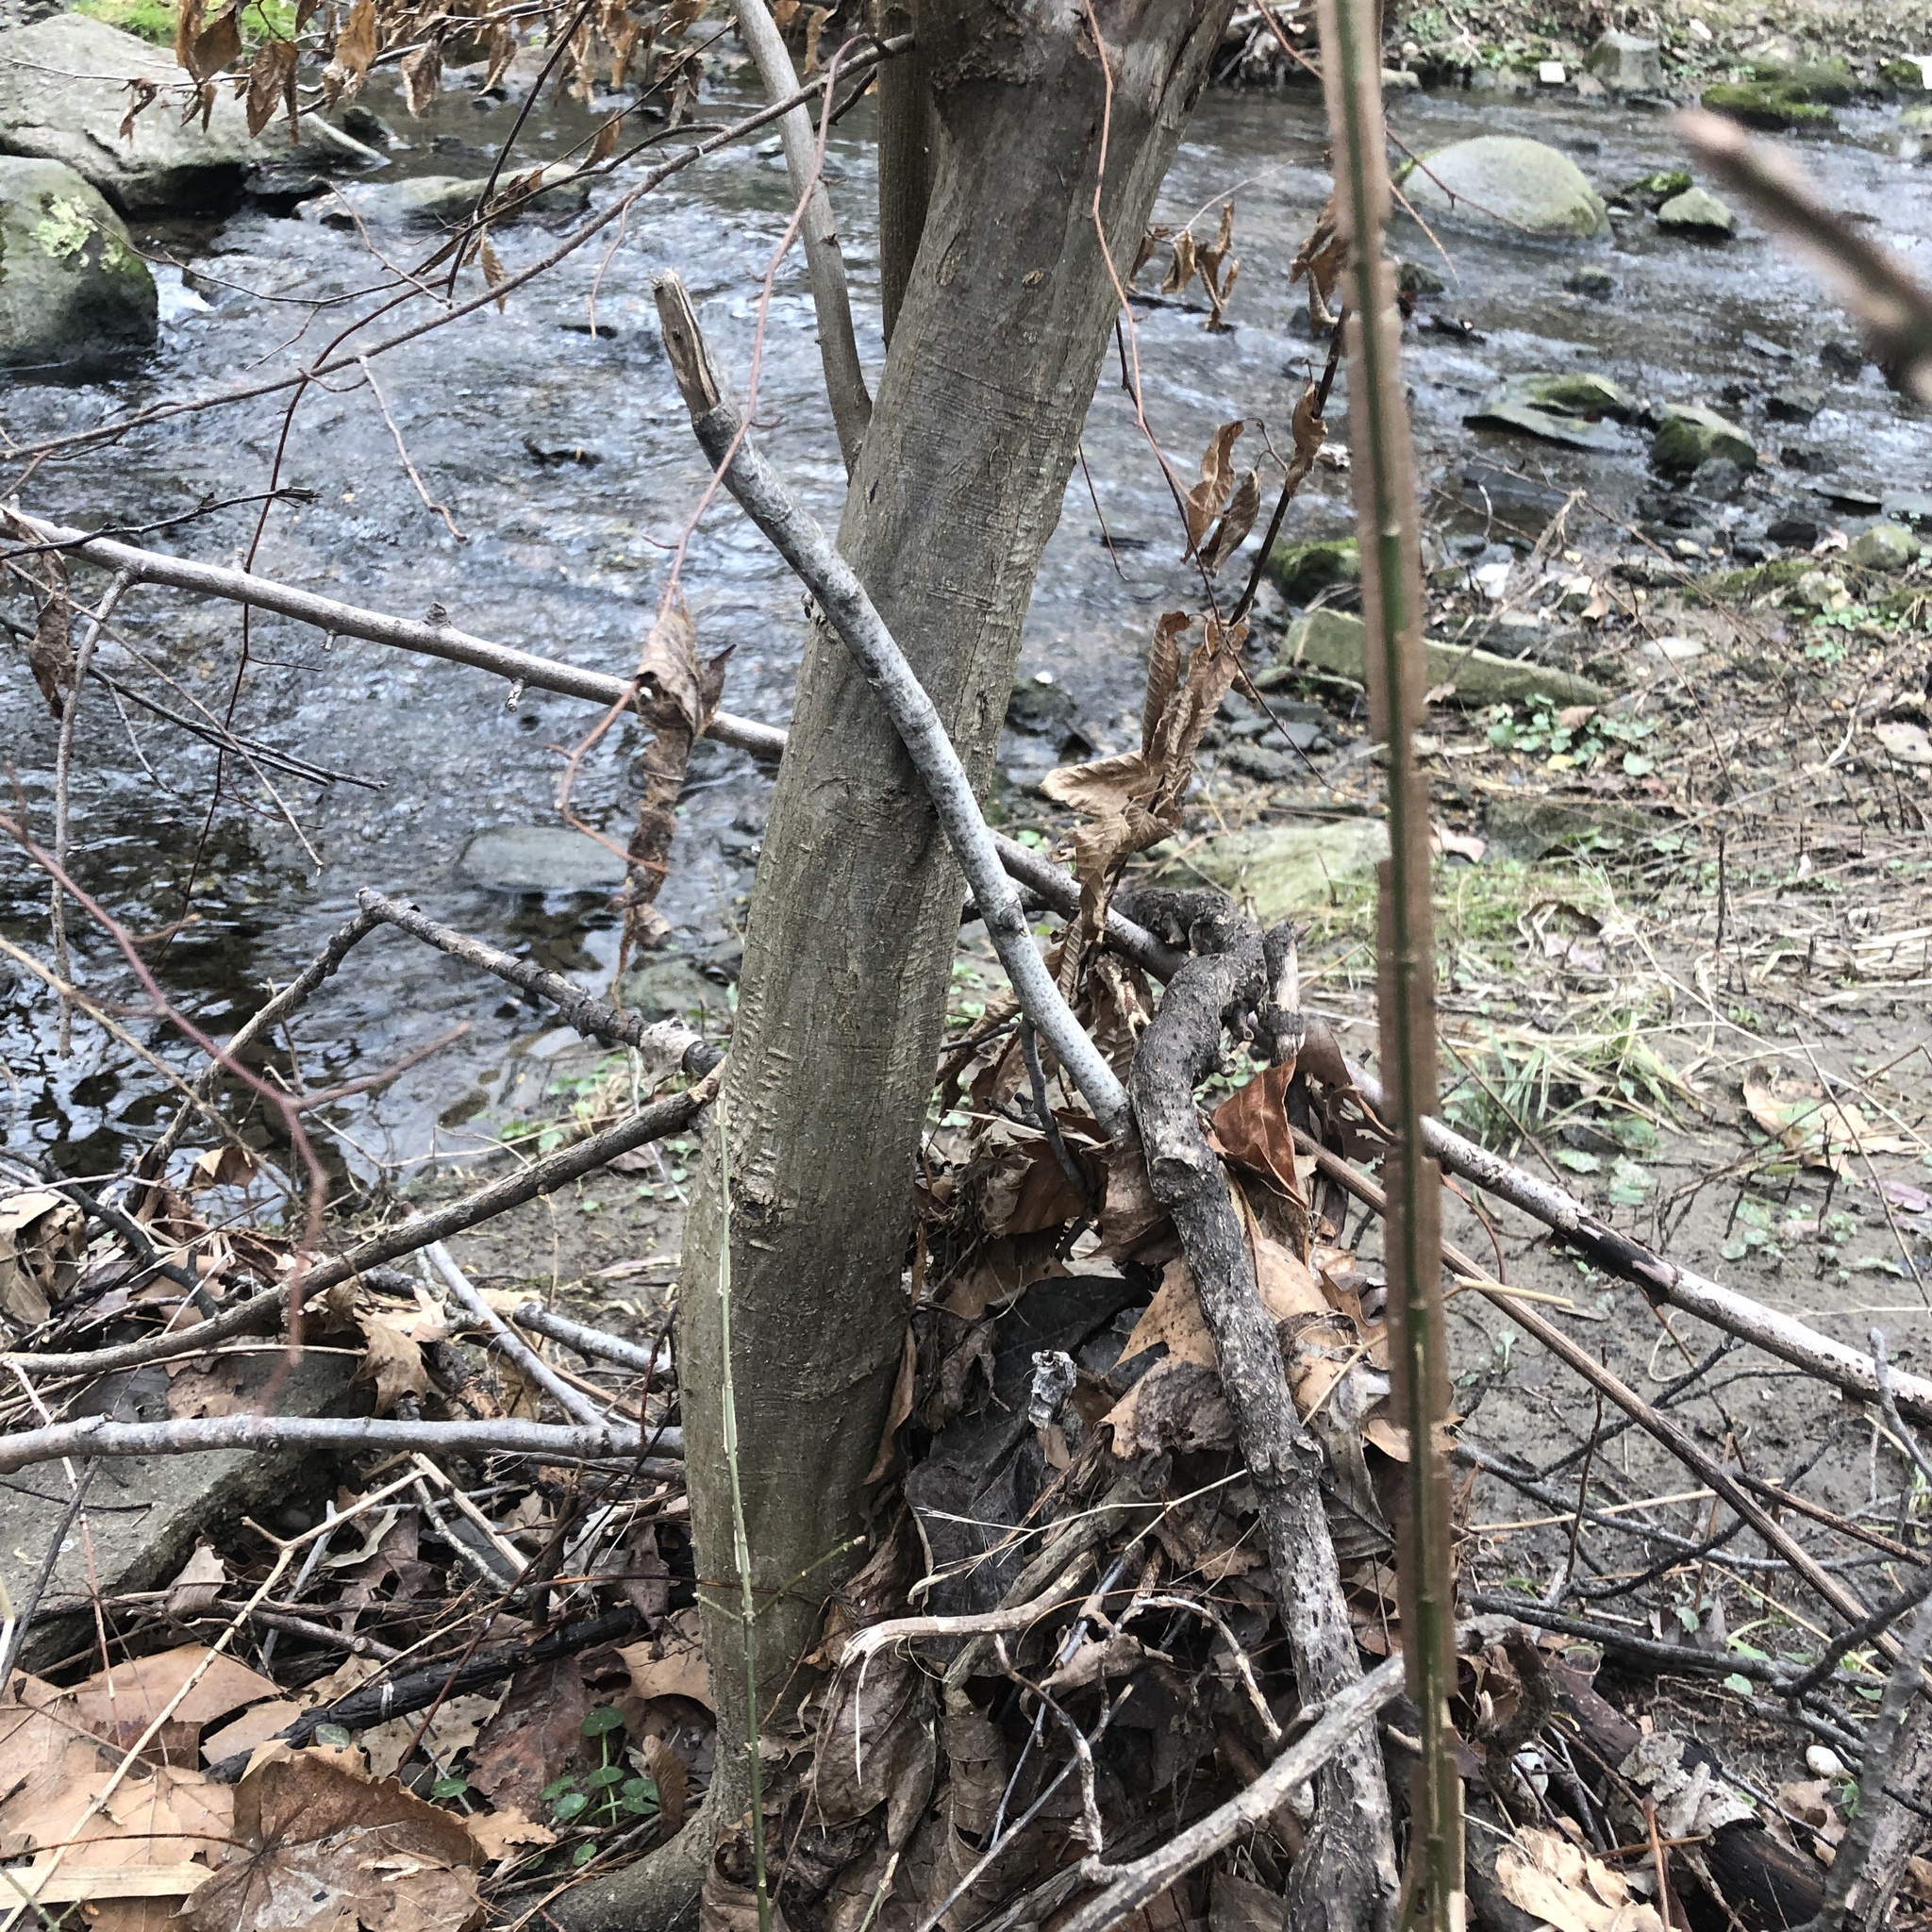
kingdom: Plantae
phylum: Tracheophyta
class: Magnoliopsida
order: Fagales
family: Betulaceae
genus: Carpinus
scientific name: Carpinus caroliniana
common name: American hornbeam
